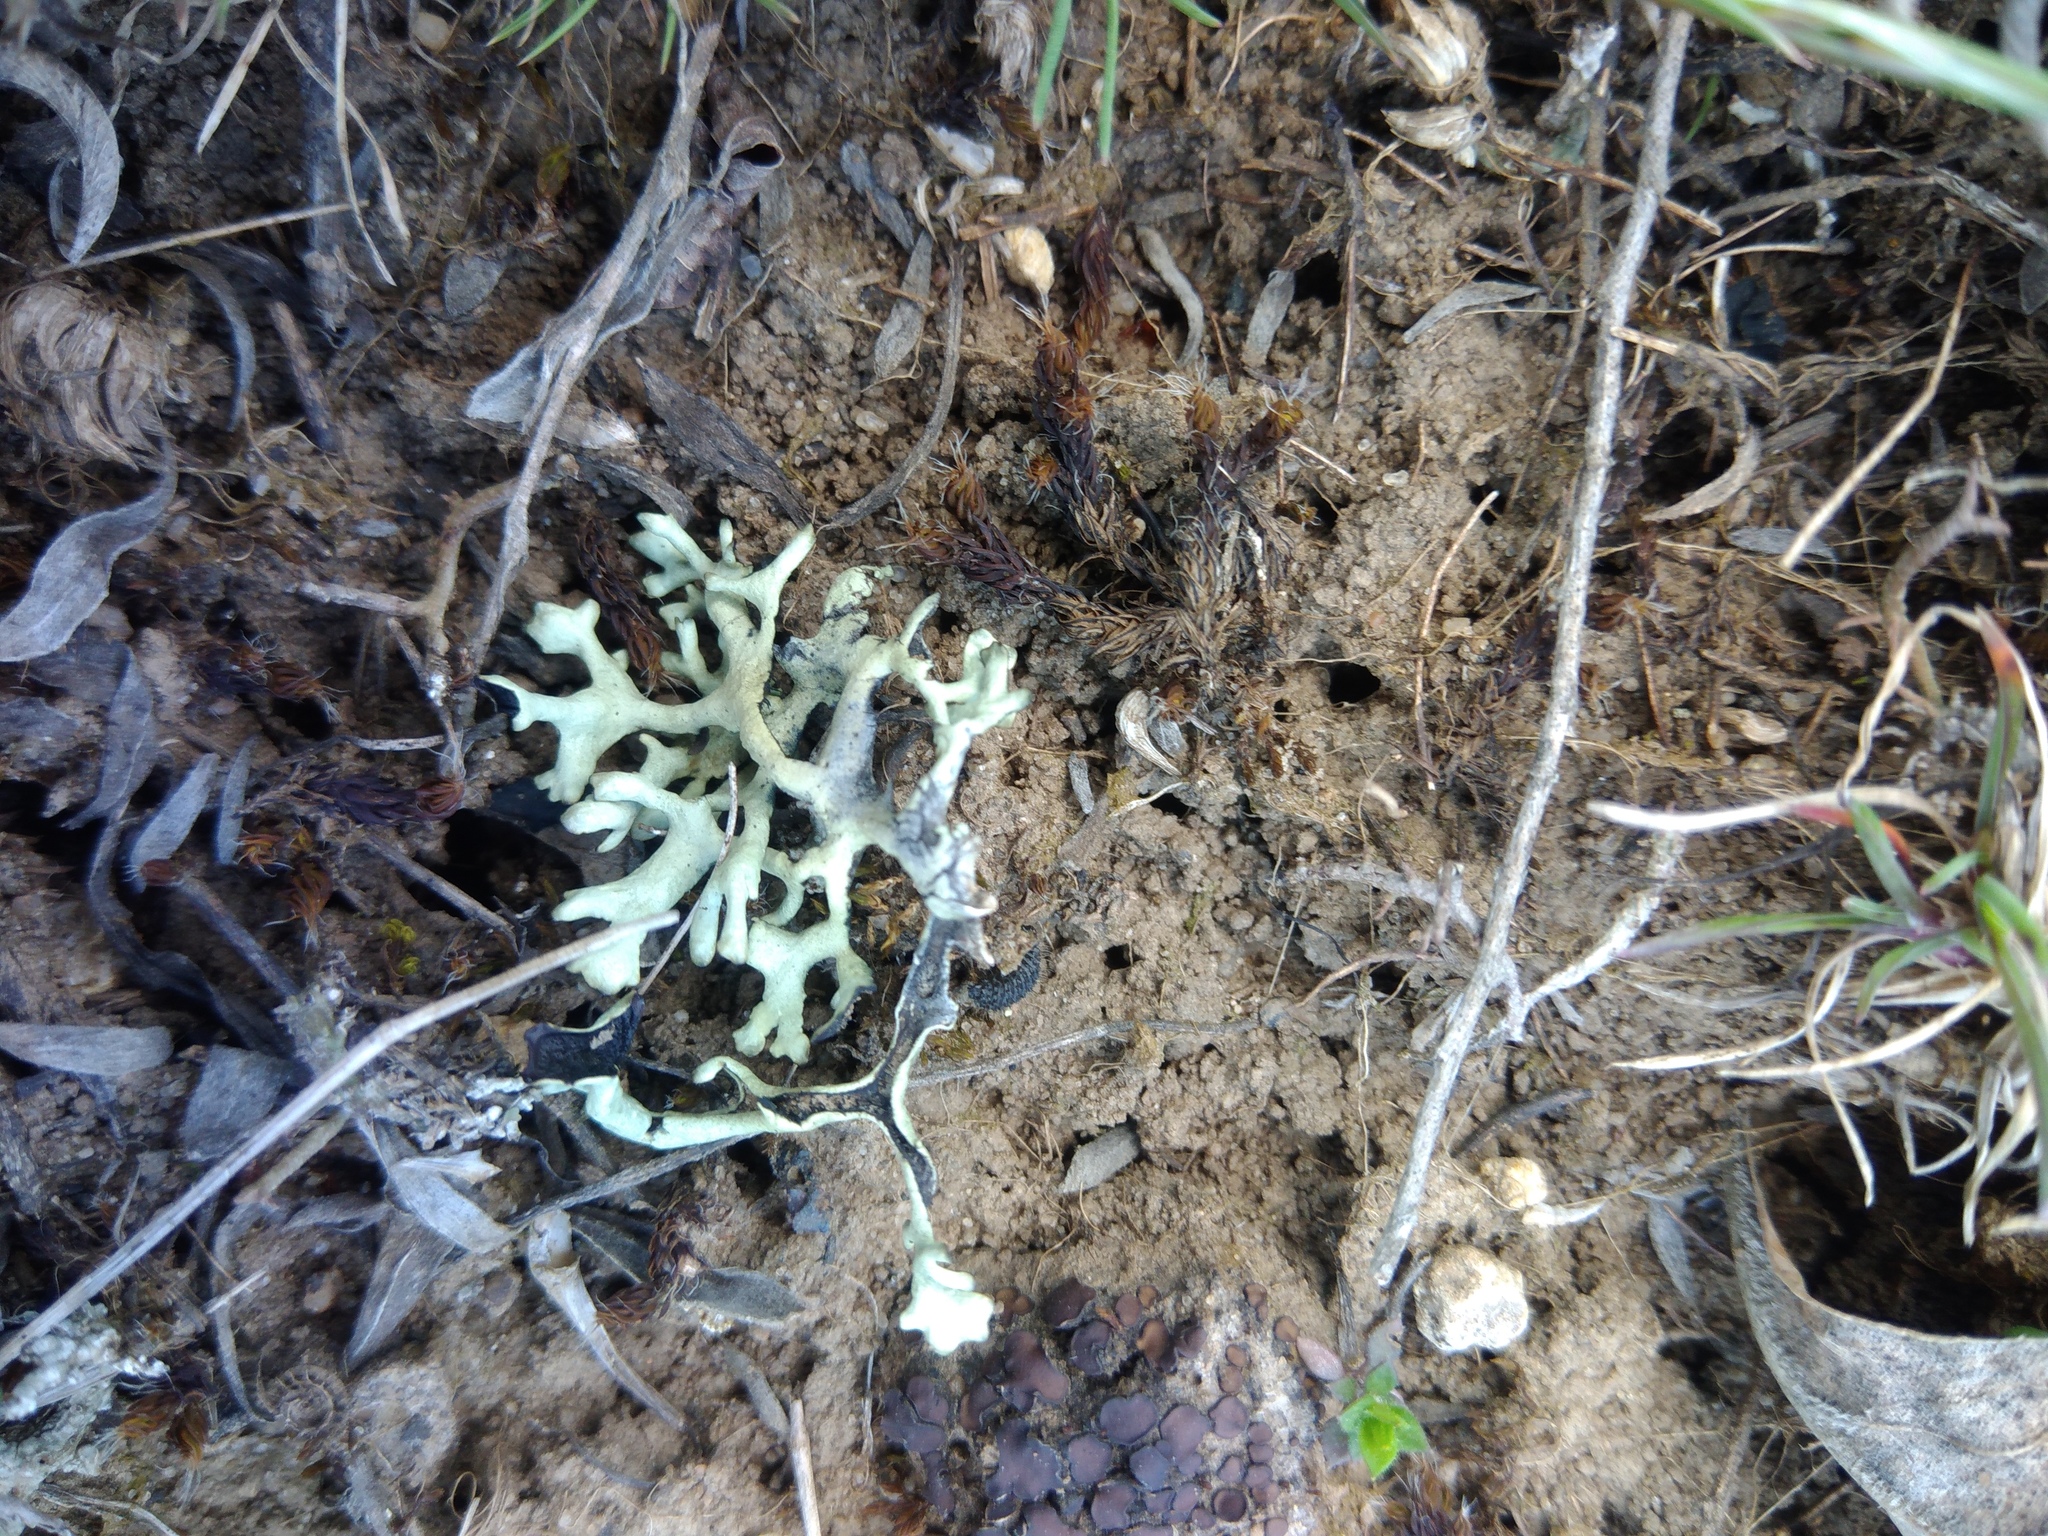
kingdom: Fungi
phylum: Ascomycota
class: Lecanoromycetes
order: Lecanorales
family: Parmeliaceae
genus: Xanthoparmelia
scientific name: Xanthoparmelia camtschadalis
